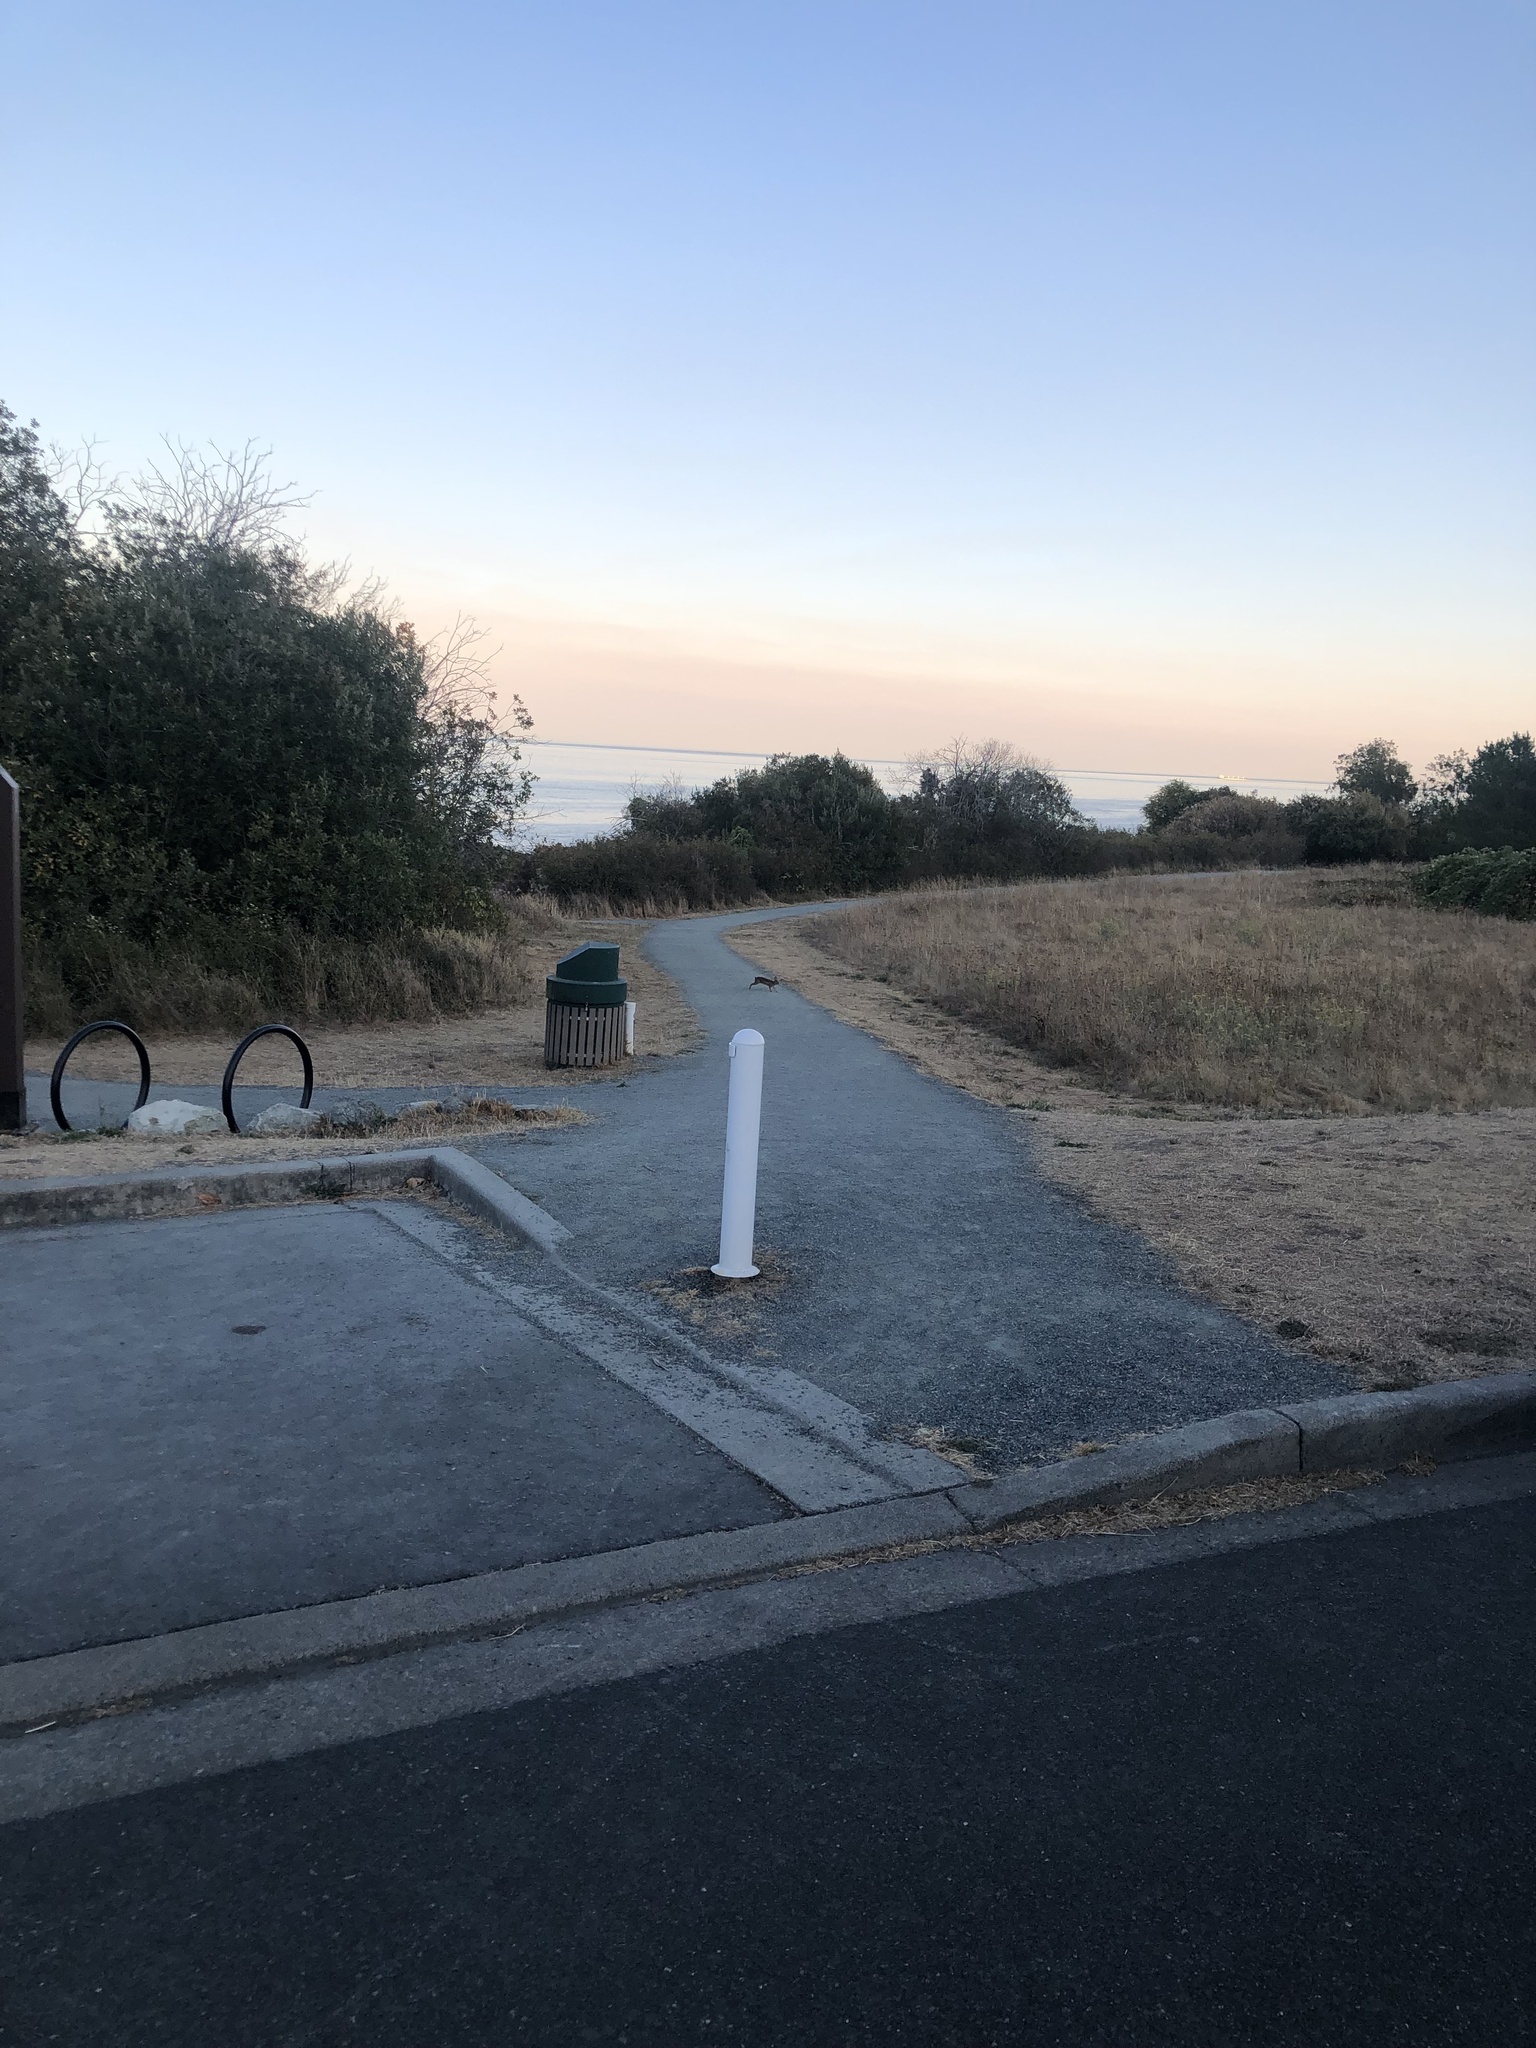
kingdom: Animalia
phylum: Chordata
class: Mammalia
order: Lagomorpha
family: Leporidae
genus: Sylvilagus
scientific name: Sylvilagus floridanus
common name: Eastern cottontail
